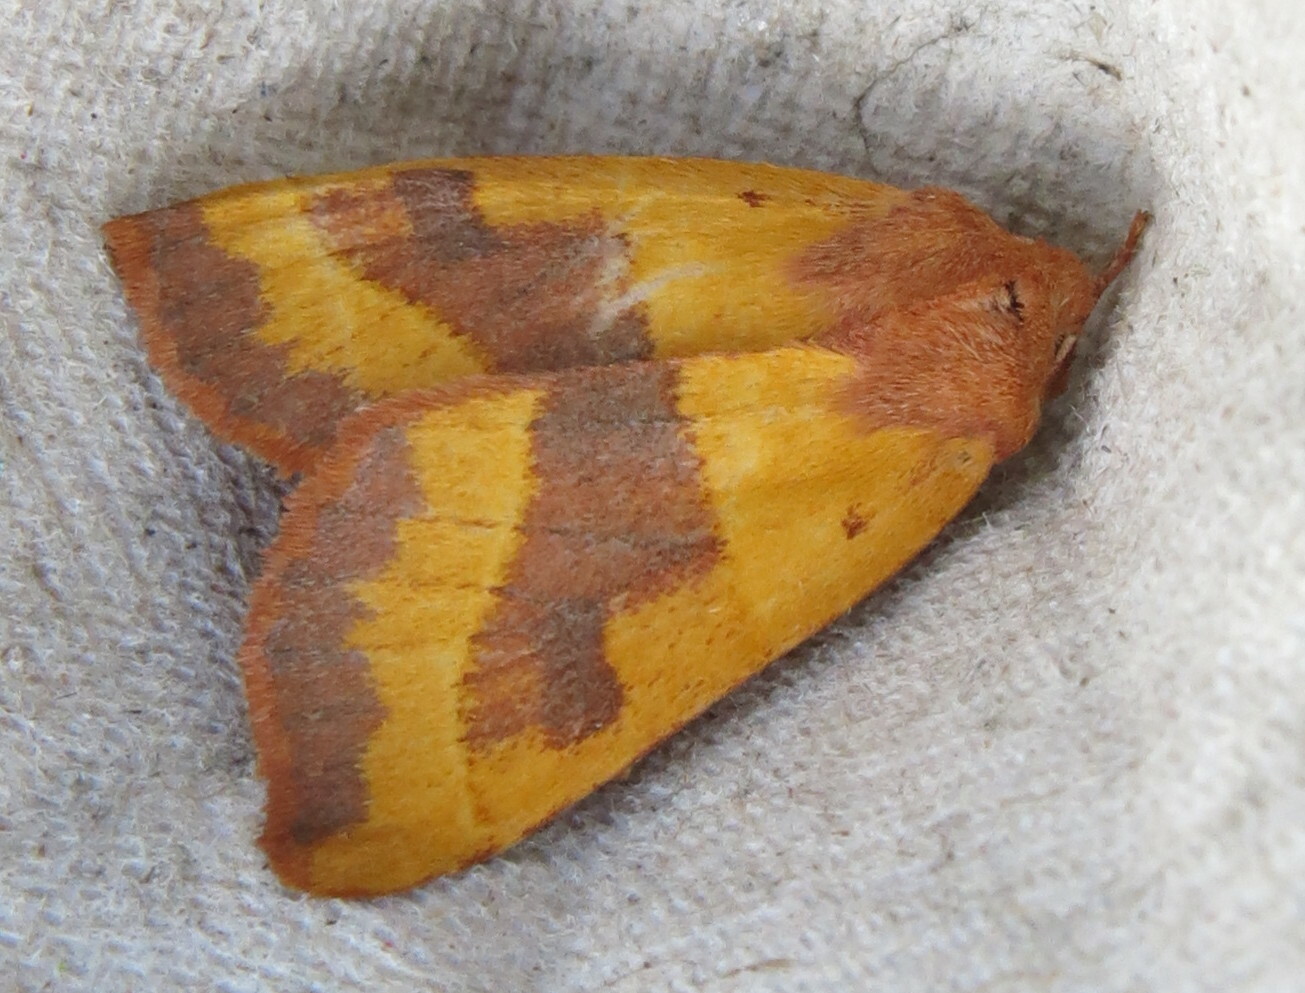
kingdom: Animalia
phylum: Arthropoda
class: Insecta
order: Lepidoptera
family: Noctuidae
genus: Atethmia
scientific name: Atethmia centrago
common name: Centre-barred sallow
